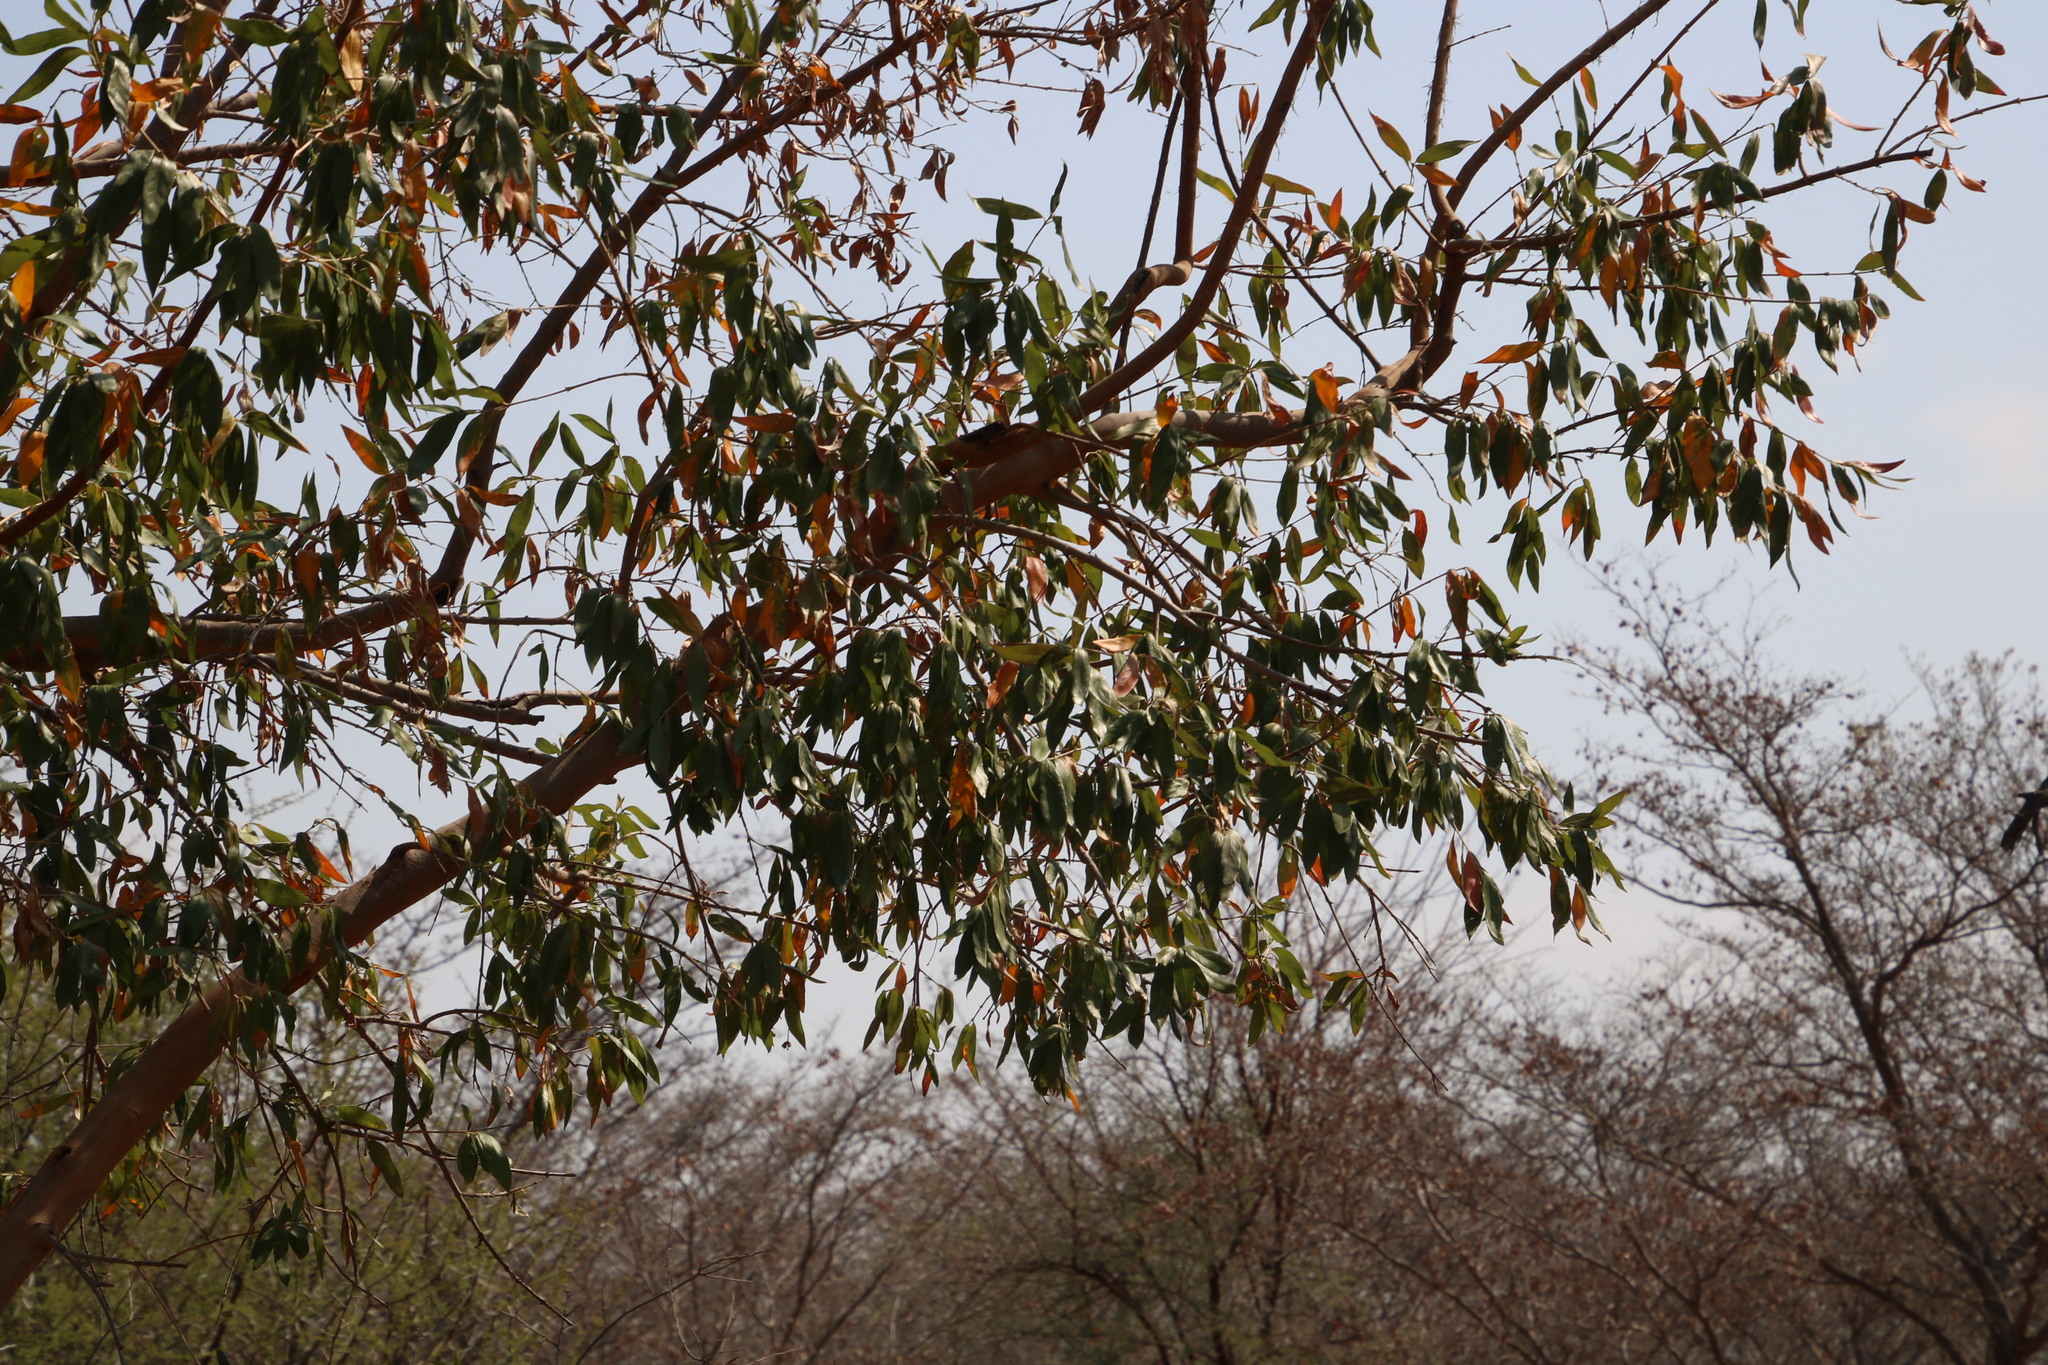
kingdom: Plantae
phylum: Tracheophyta
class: Magnoliopsida
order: Myrtales
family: Combretaceae
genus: Combretum
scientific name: Combretum erythrophyllum
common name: Bush-willow
